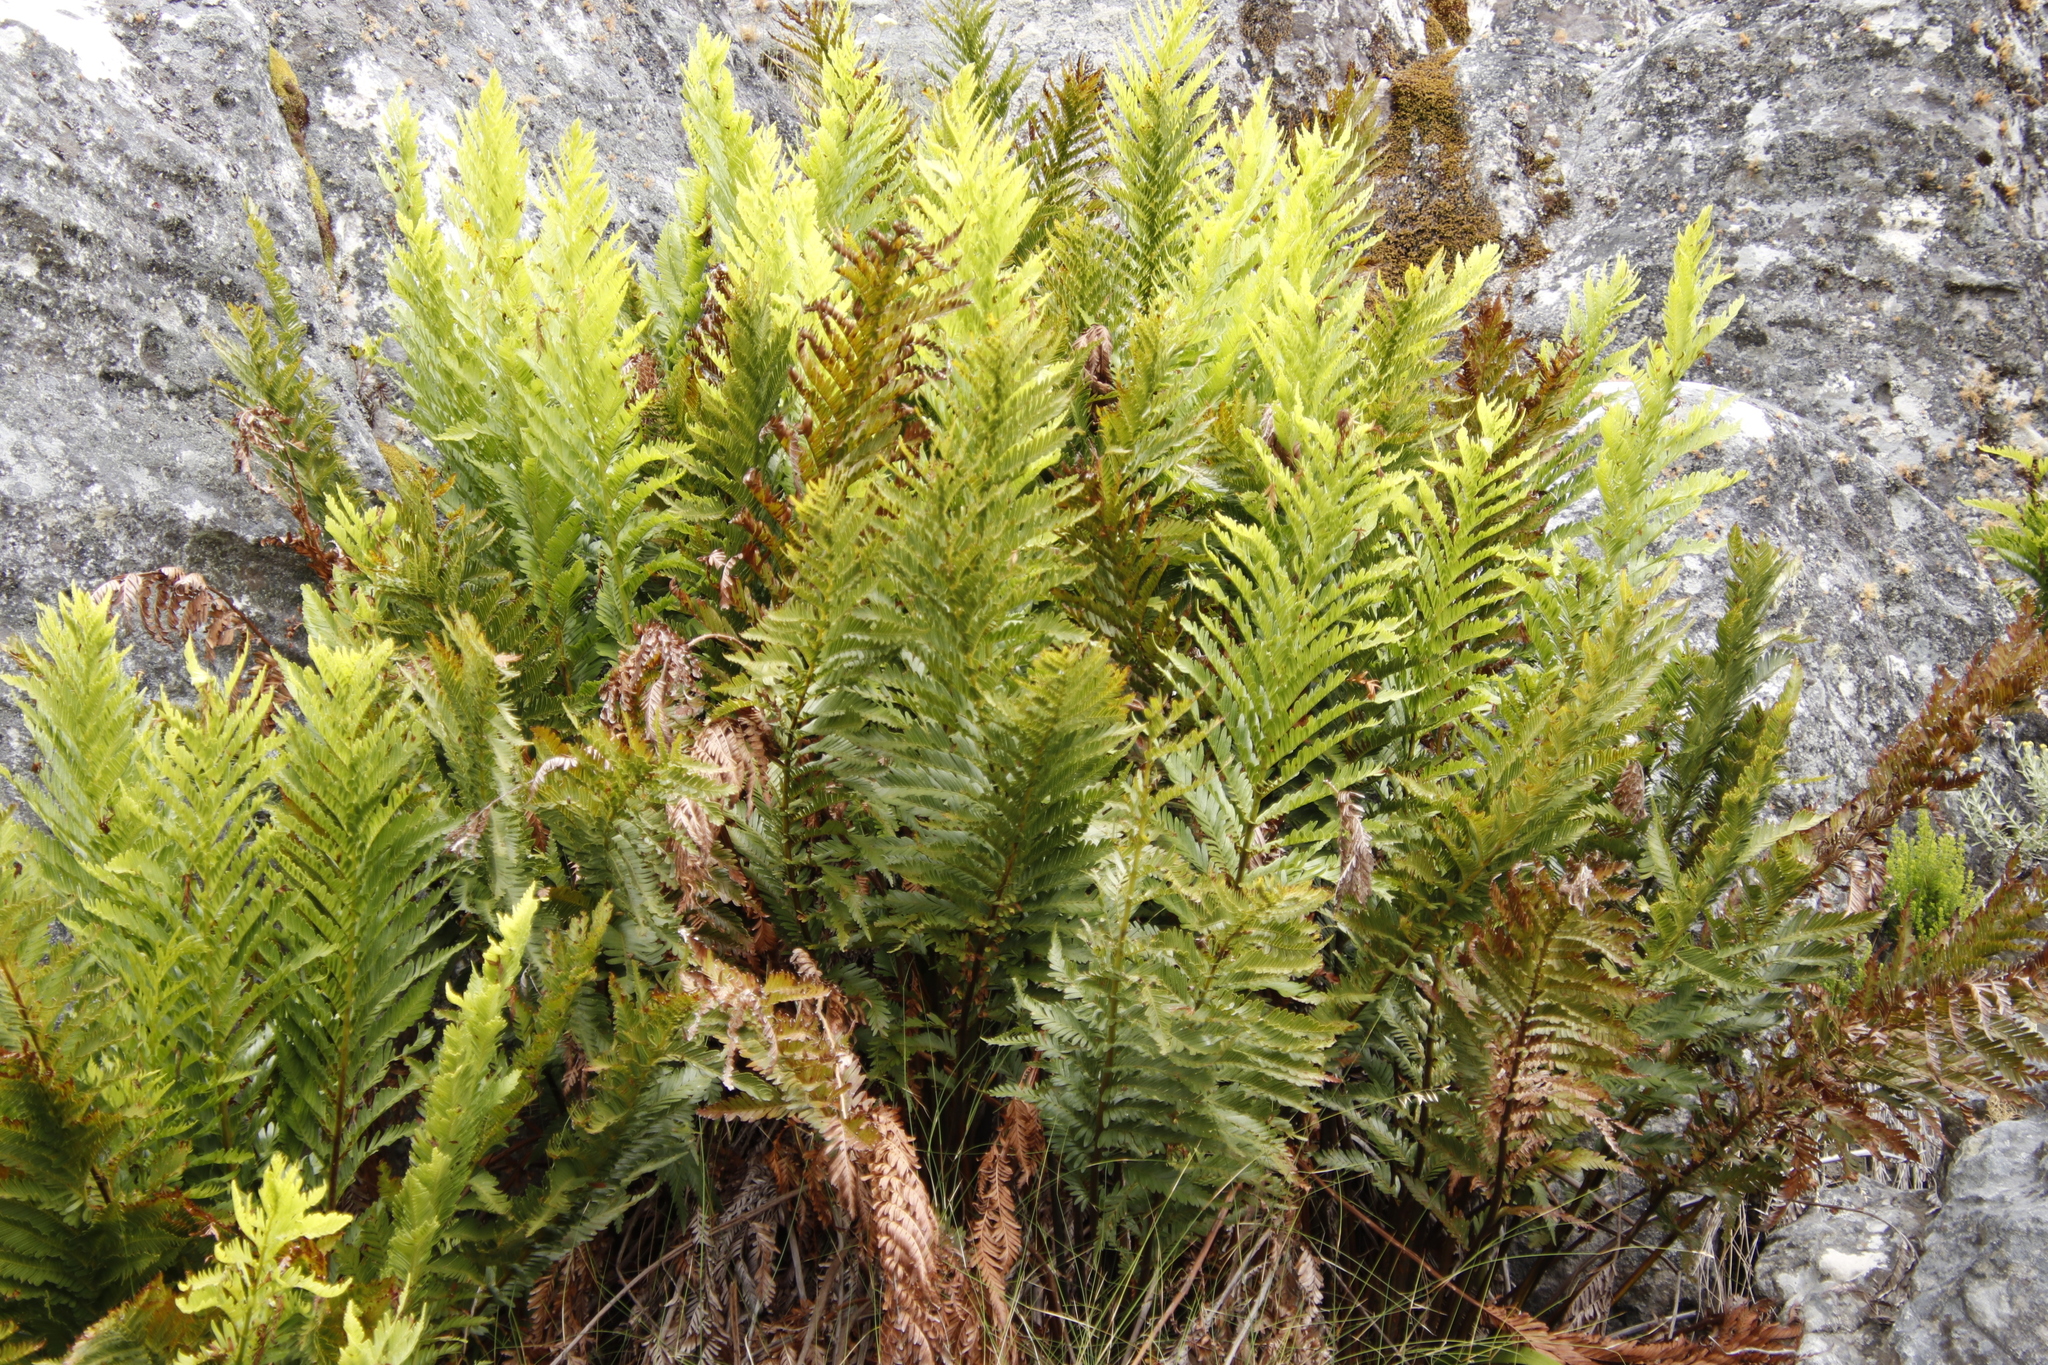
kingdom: Plantae
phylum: Tracheophyta
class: Polypodiopsida
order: Osmundales
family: Osmundaceae
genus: Todea
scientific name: Todea barbara
